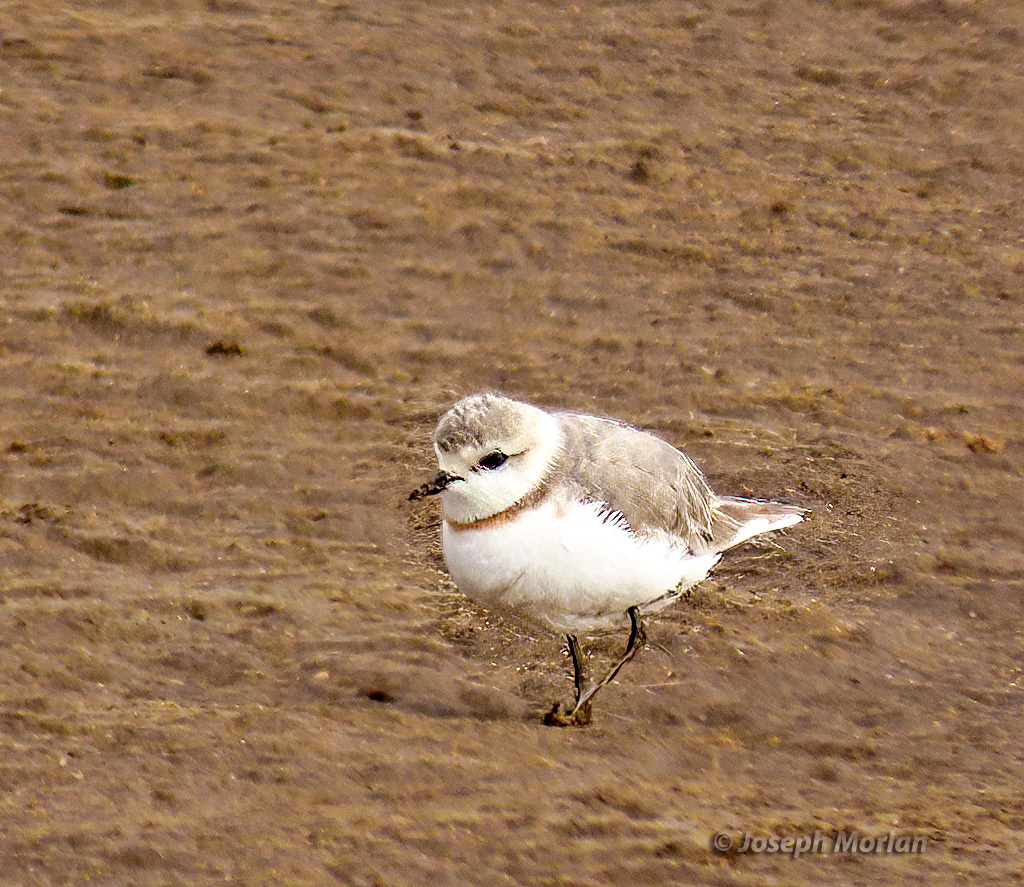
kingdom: Animalia
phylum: Chordata
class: Aves
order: Charadriiformes
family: Charadriidae
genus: Anarhynchus
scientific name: Anarhynchus
